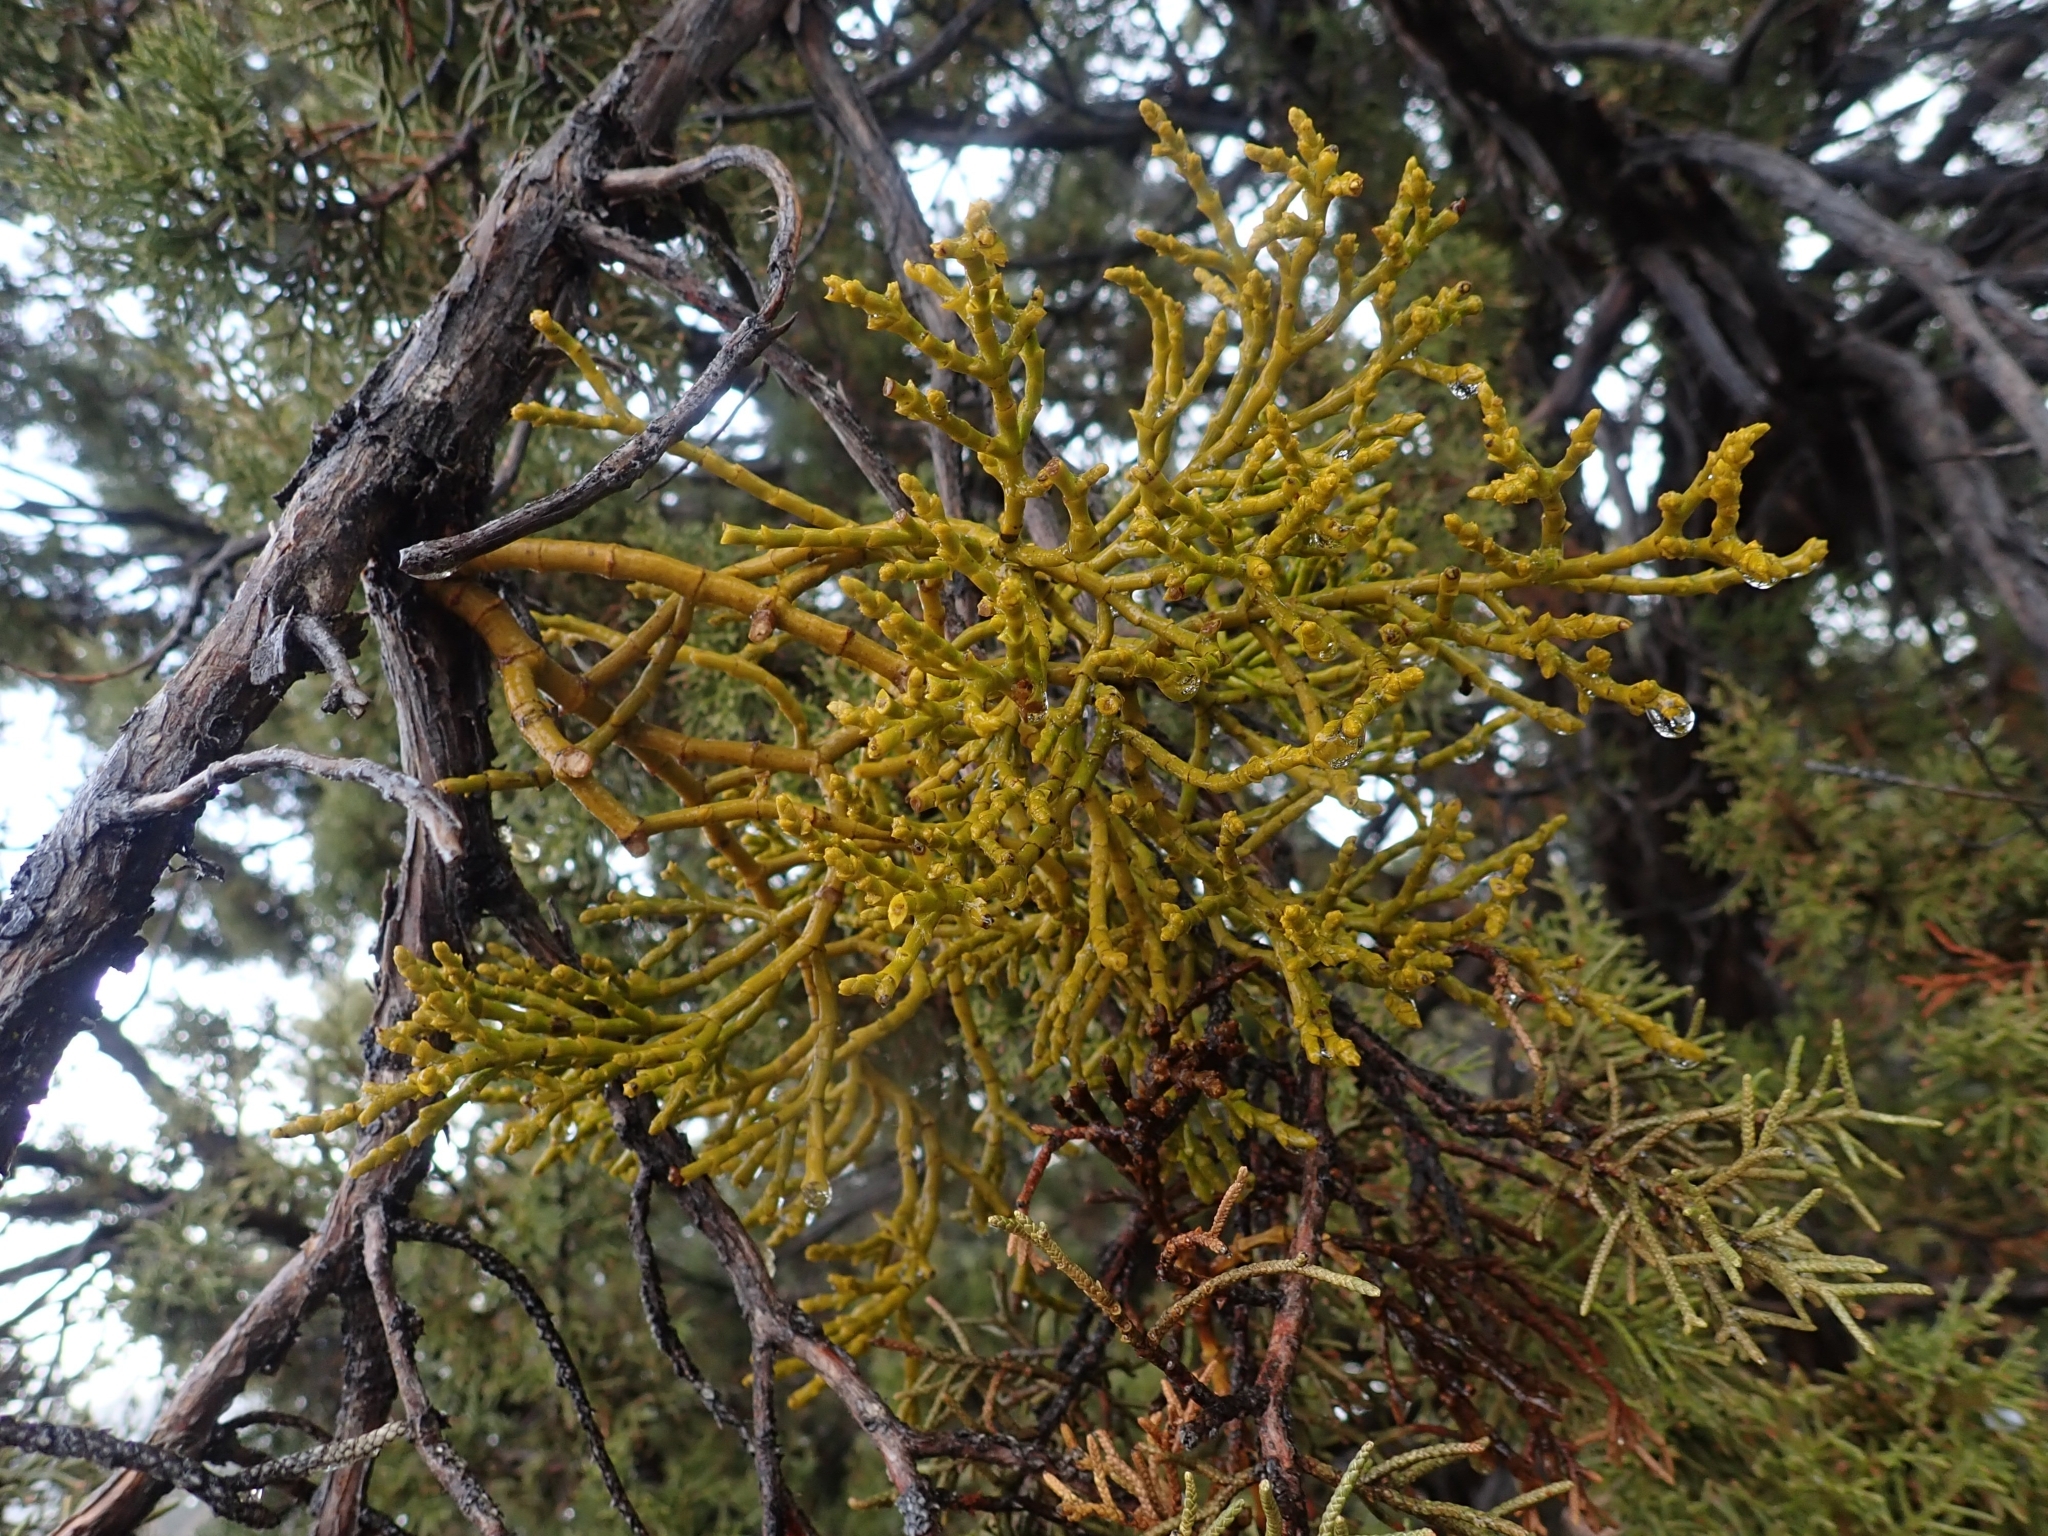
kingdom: Plantae
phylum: Tracheophyta
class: Magnoliopsida
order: Santalales
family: Viscaceae
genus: Phoradendron
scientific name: Phoradendron juniperinum
